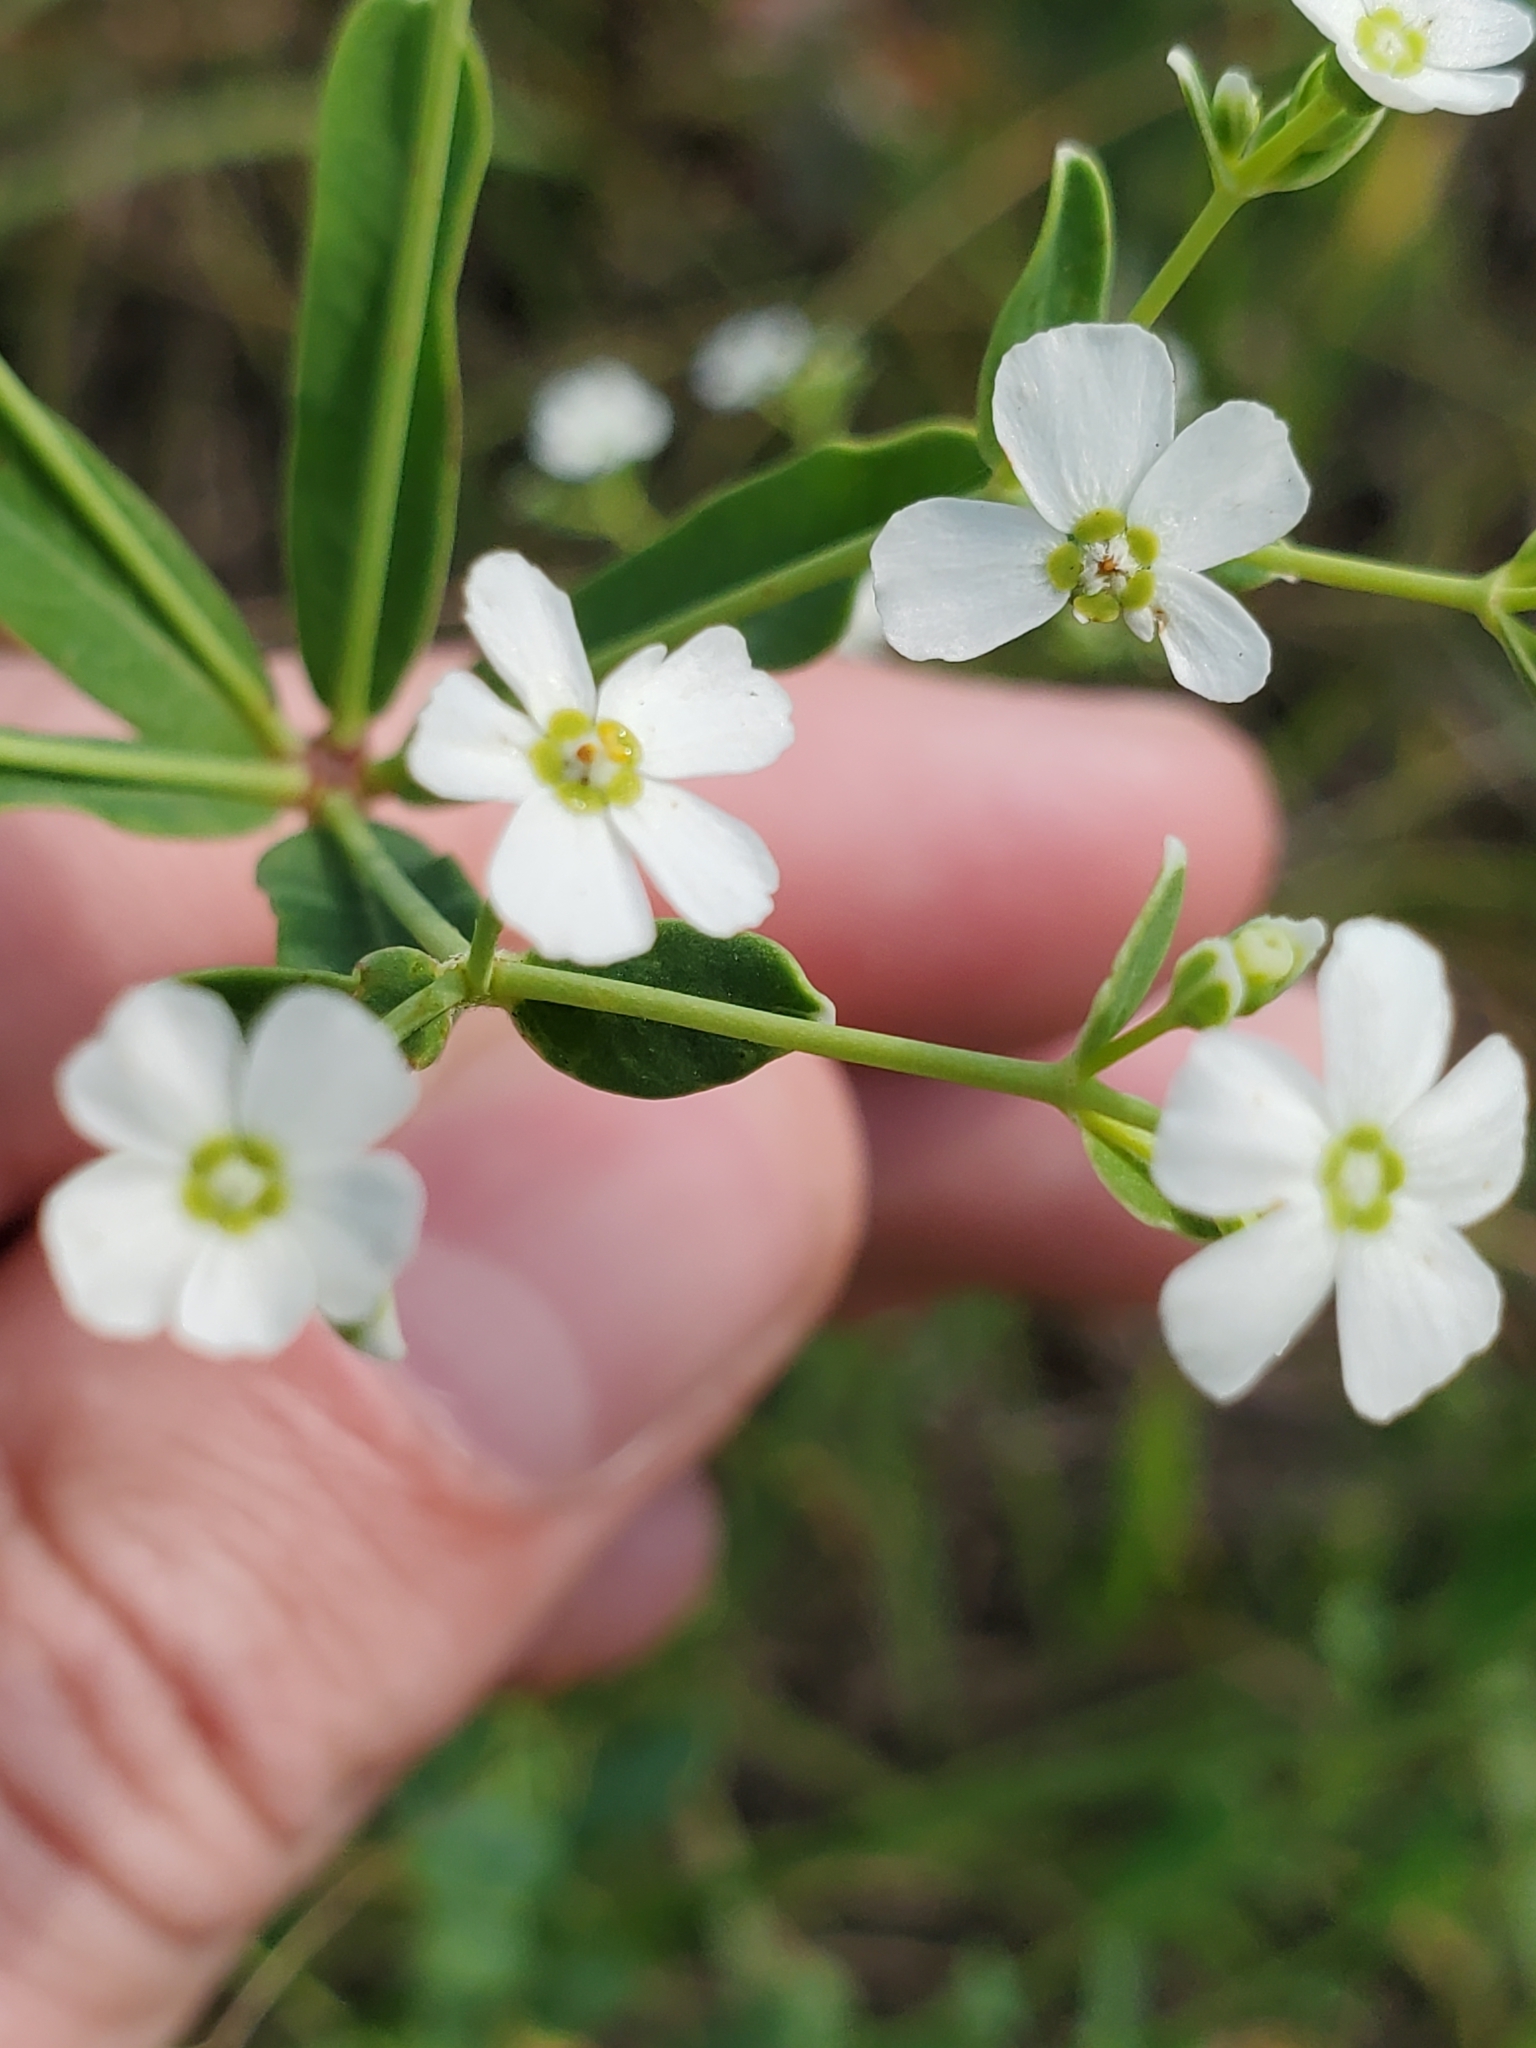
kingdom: Plantae
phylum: Tracheophyta
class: Magnoliopsida
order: Malpighiales
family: Euphorbiaceae
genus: Euphorbia
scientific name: Euphorbia corollata
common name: Flowering spurge
